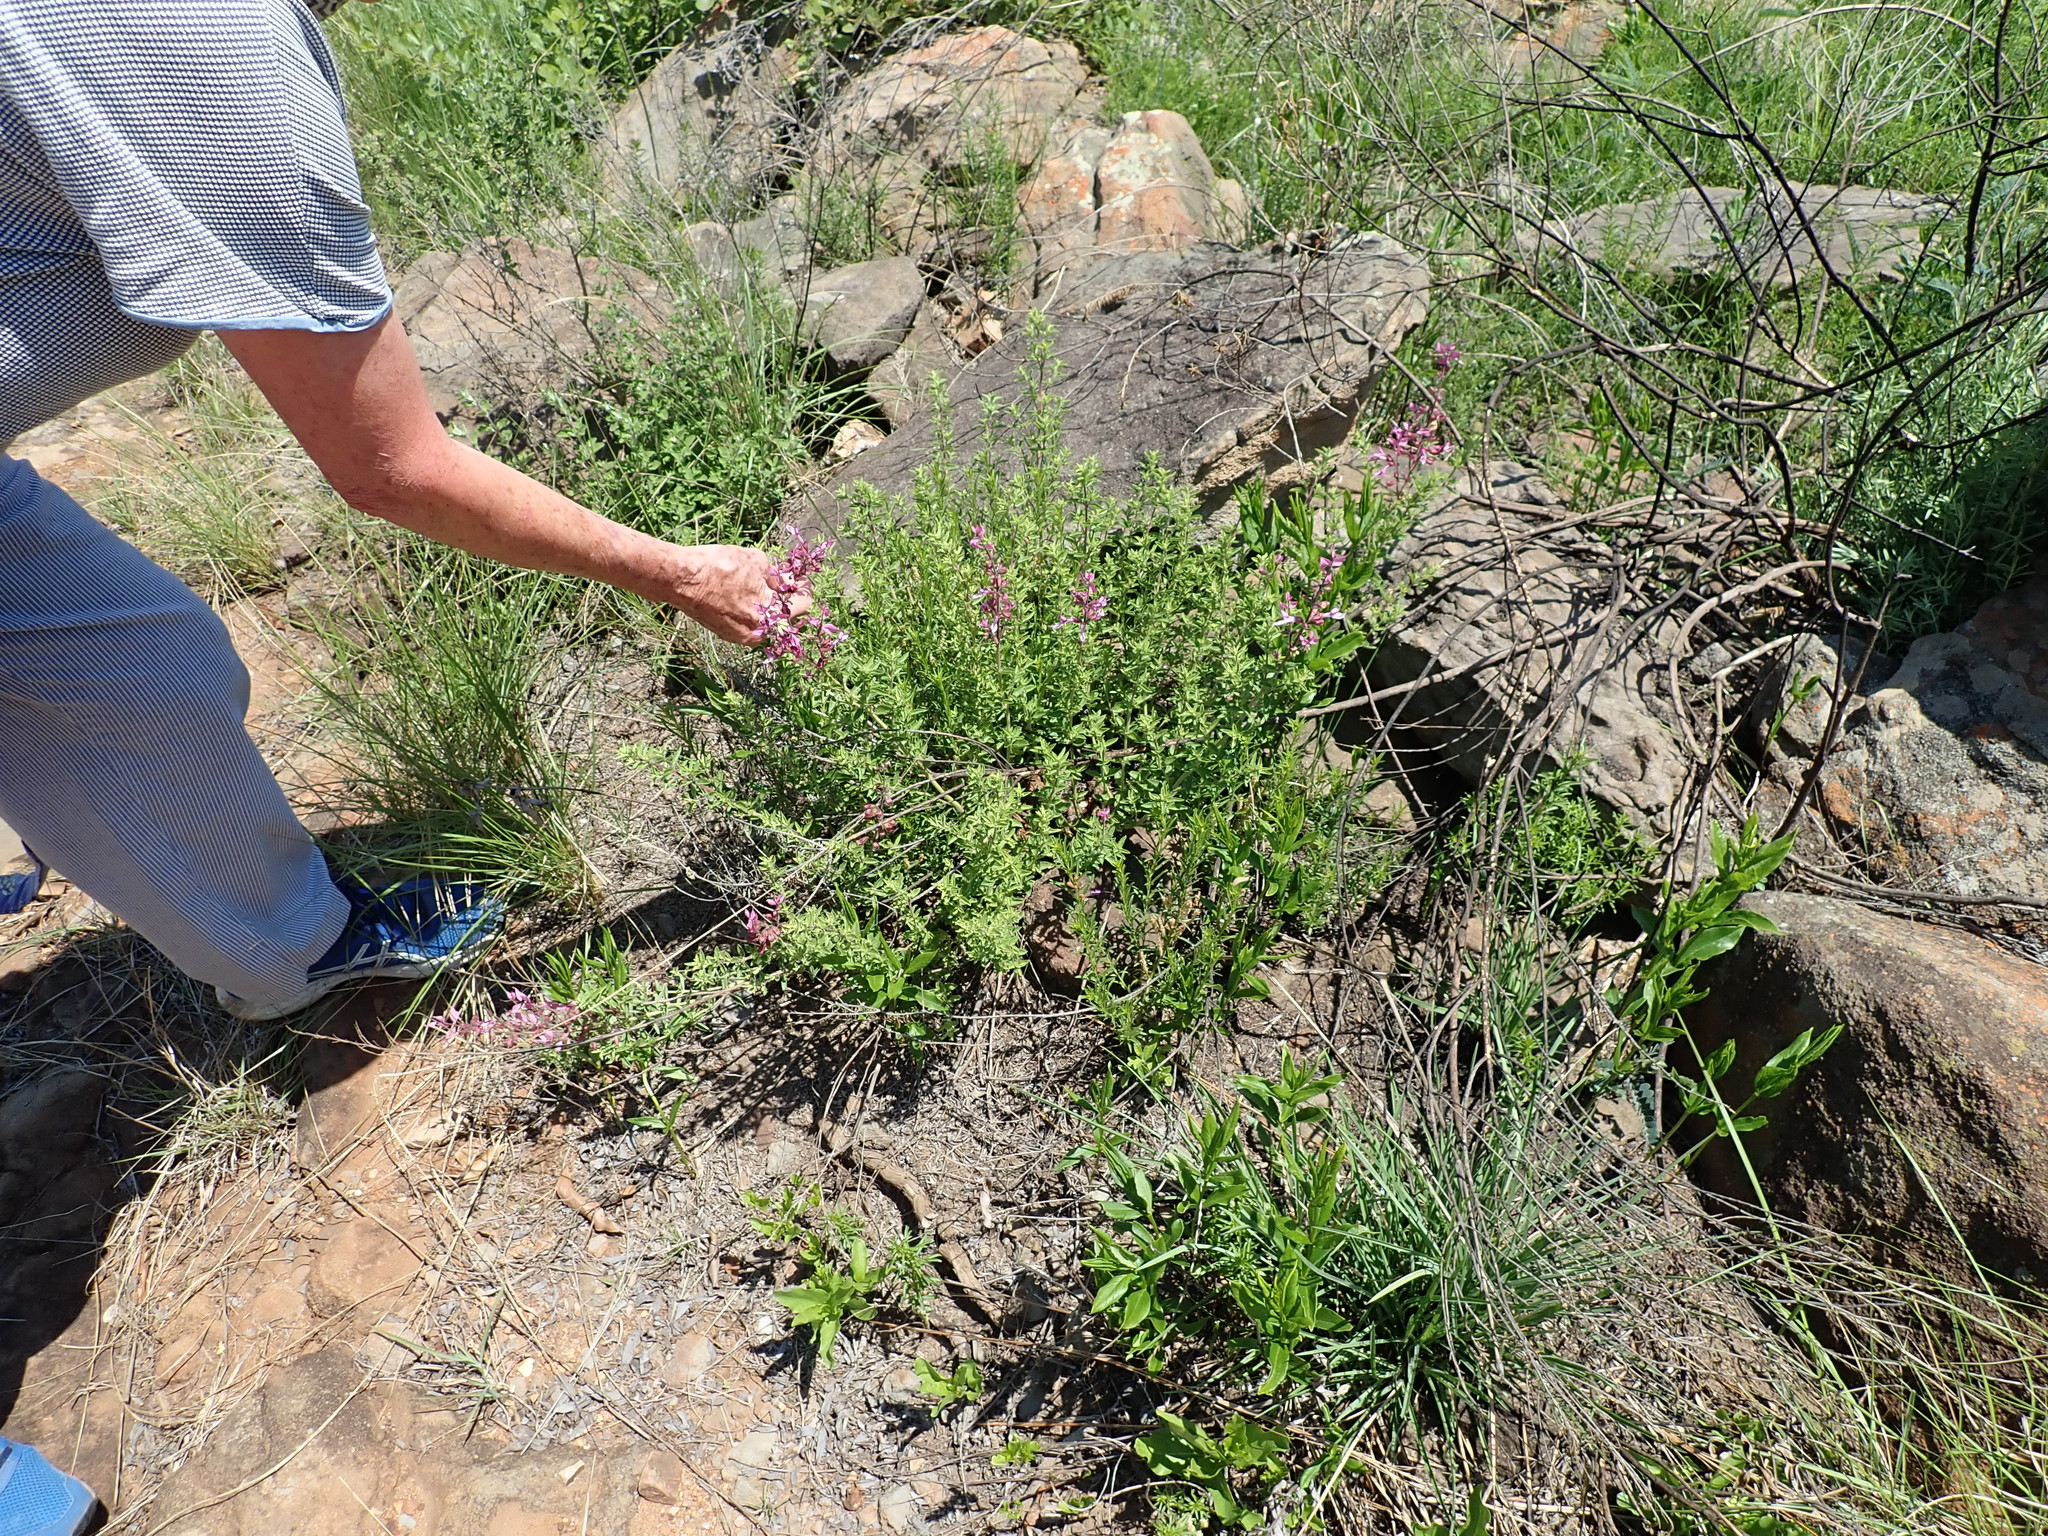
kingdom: Plantae
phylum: Tracheophyta
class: Magnoliopsida
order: Lamiales
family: Lamiaceae
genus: Syncolostemon
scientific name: Syncolostemon transvaalensis
